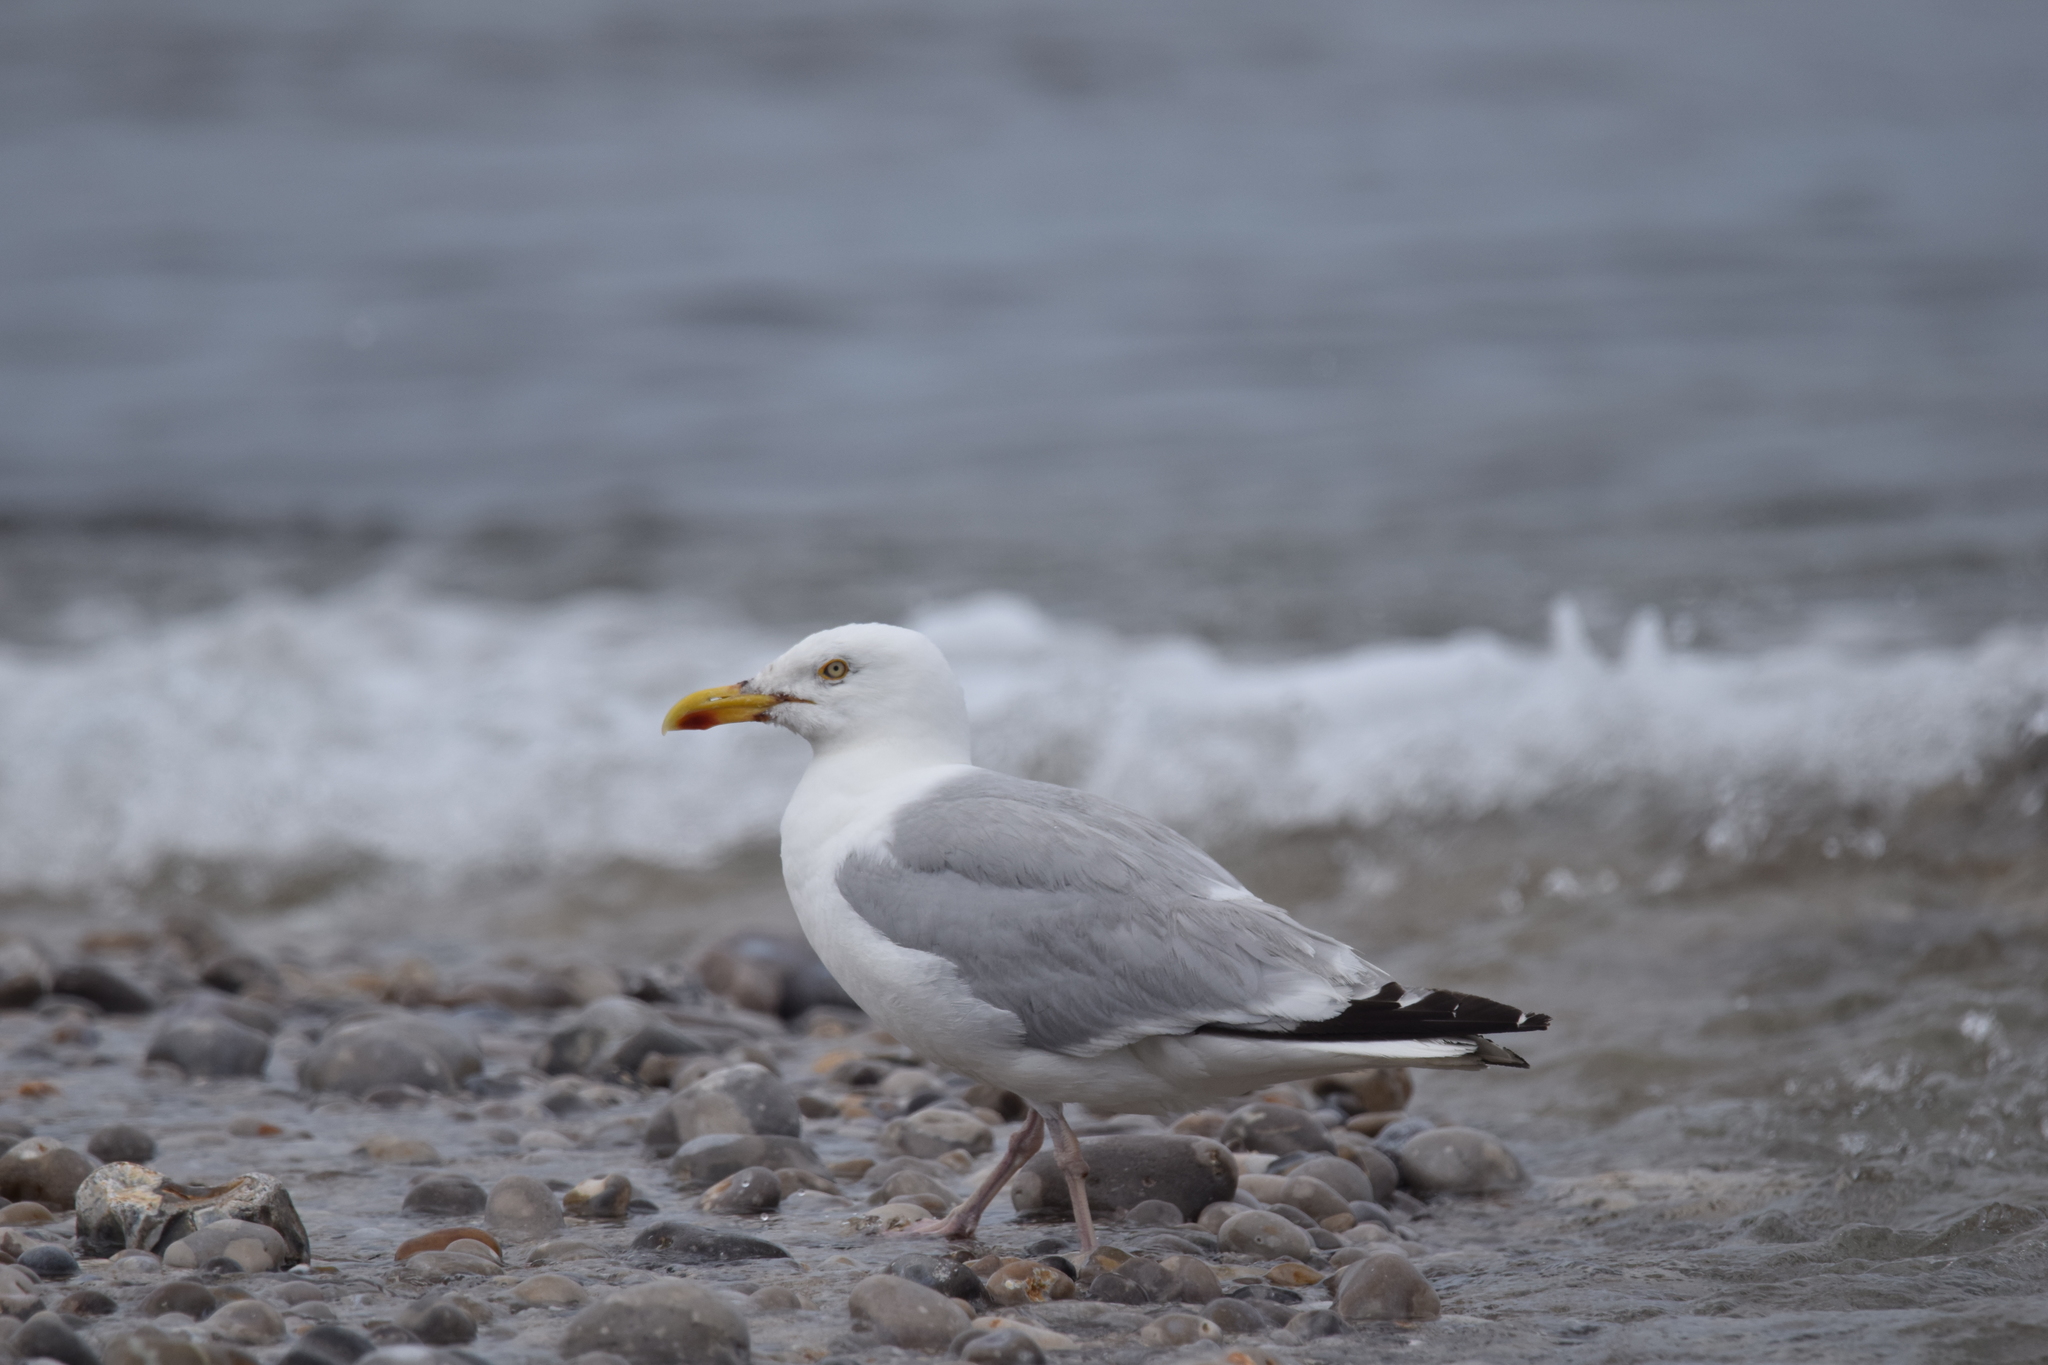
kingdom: Animalia
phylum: Chordata
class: Aves
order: Charadriiformes
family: Laridae
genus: Larus
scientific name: Larus argentatus
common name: Herring gull
